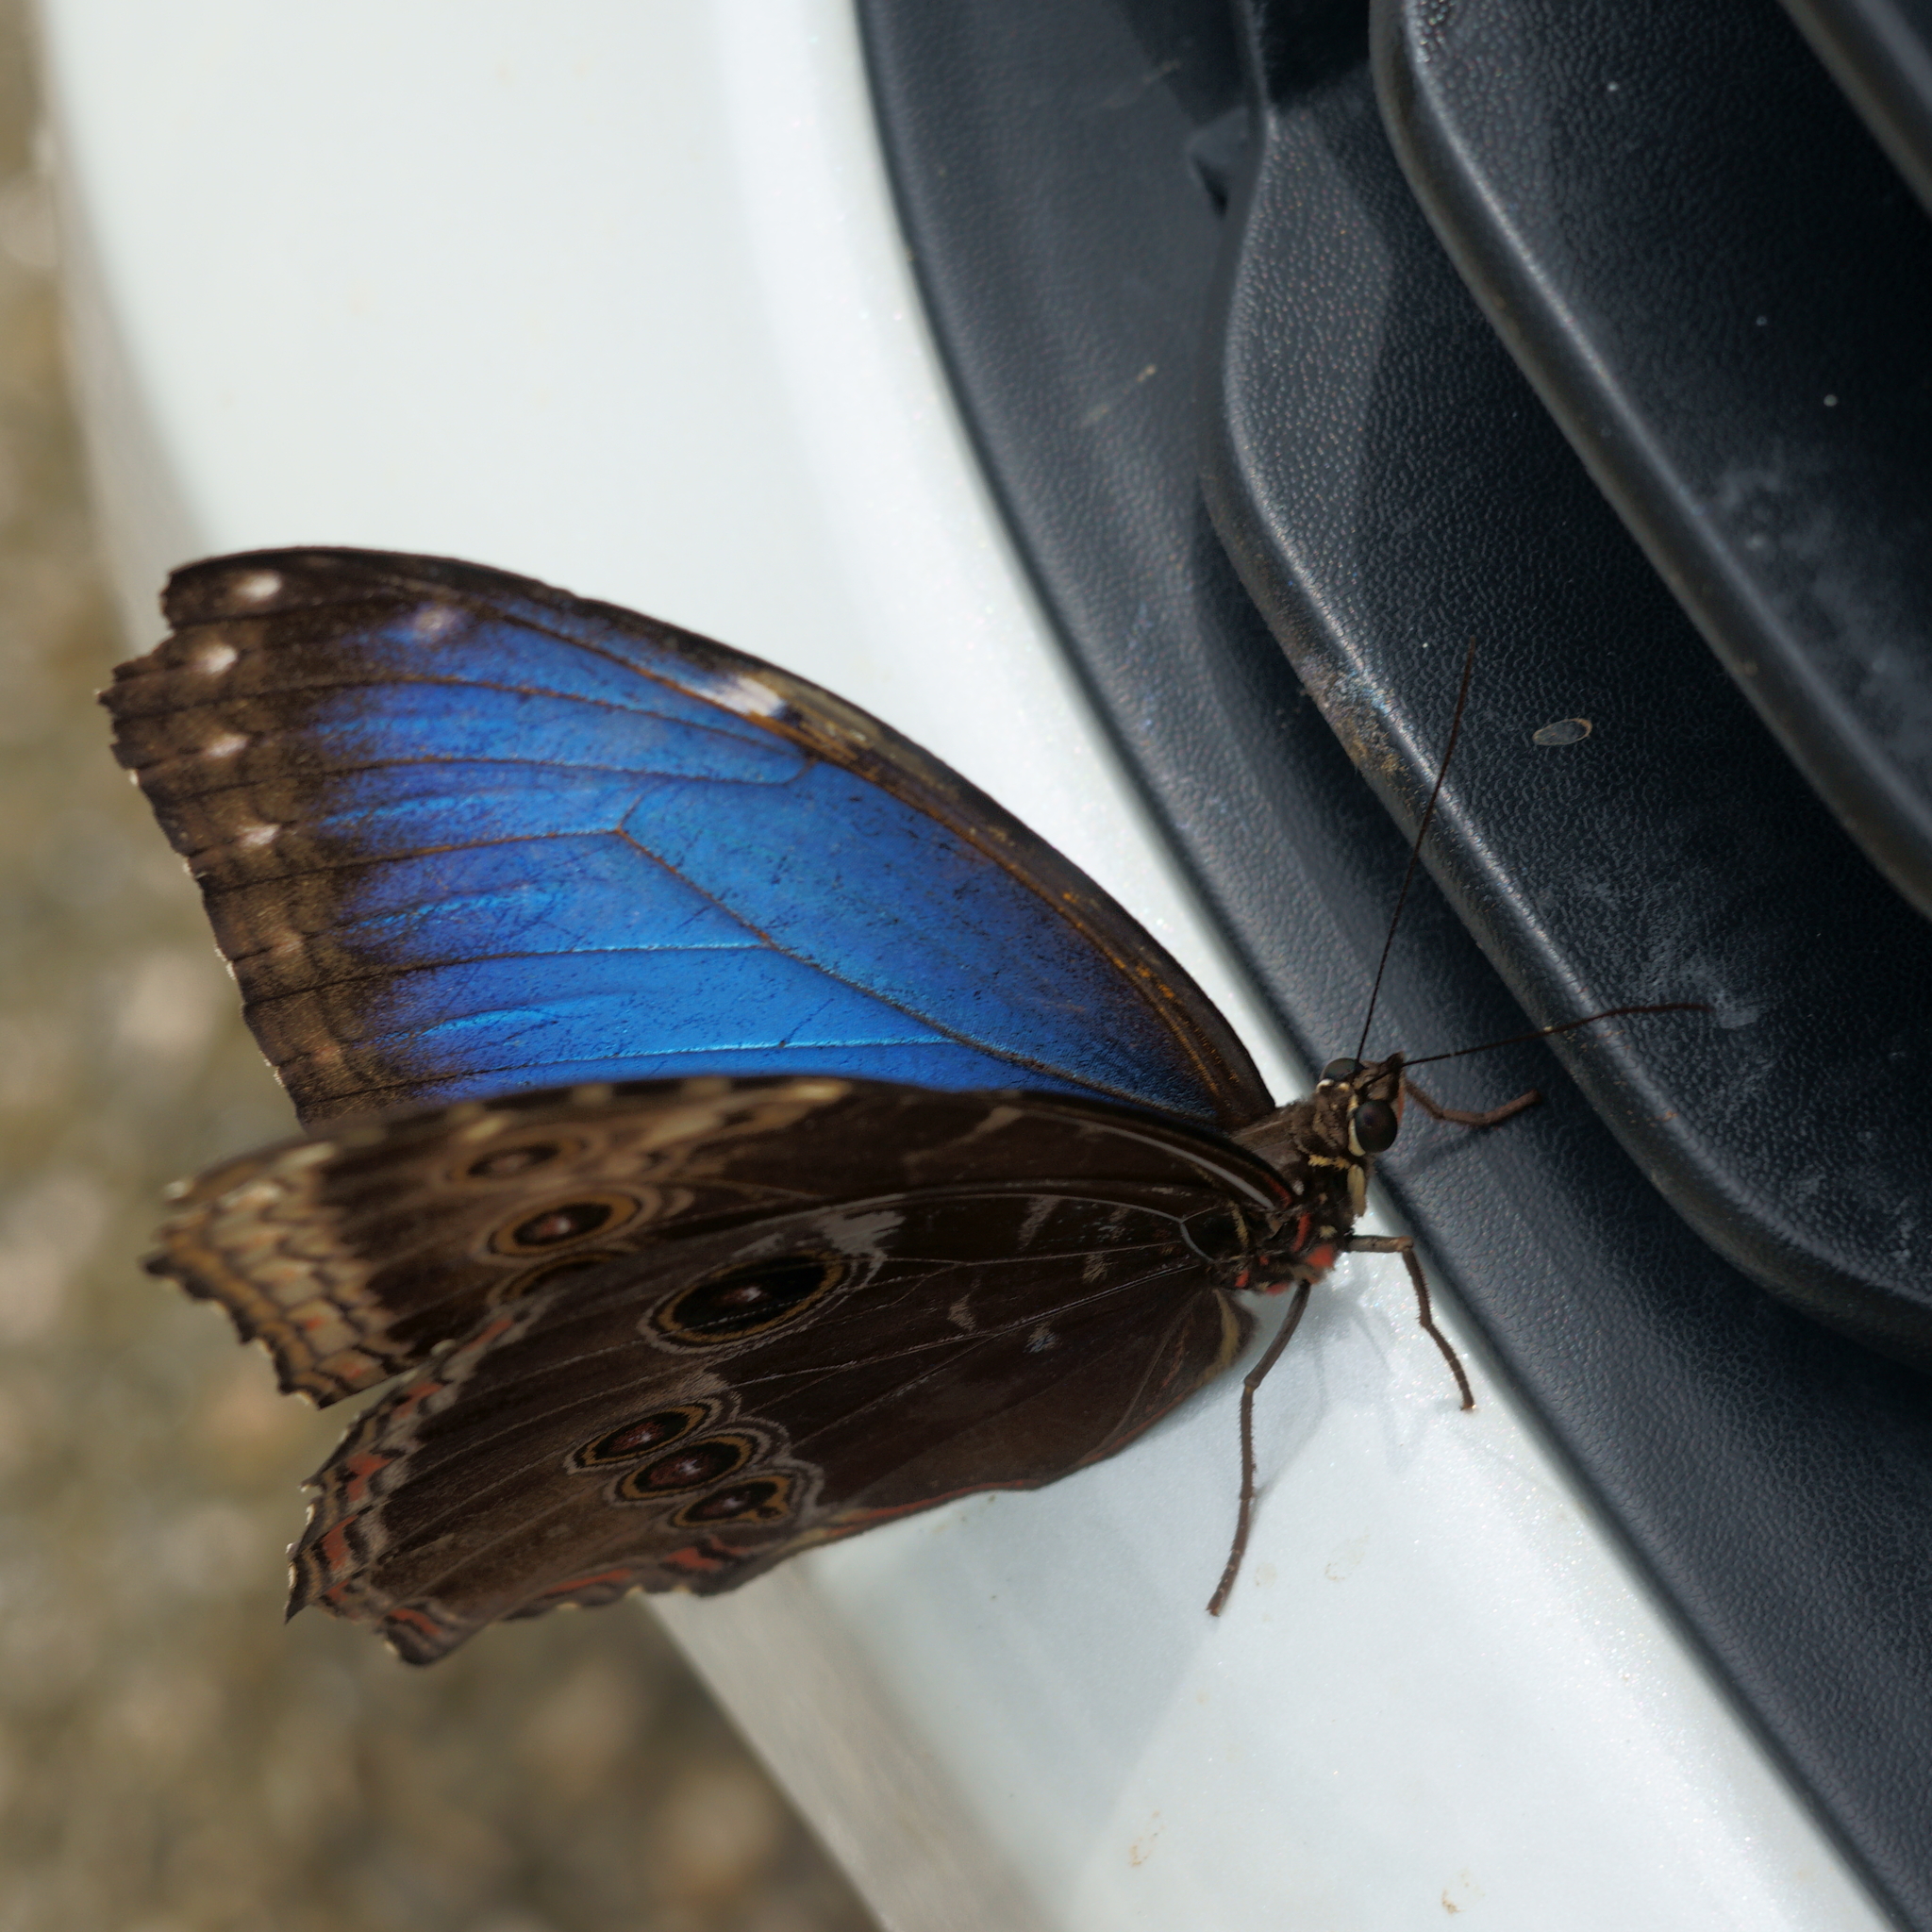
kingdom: Animalia
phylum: Arthropoda
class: Insecta
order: Lepidoptera
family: Nymphalidae
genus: Morpho
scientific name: Morpho helenor
